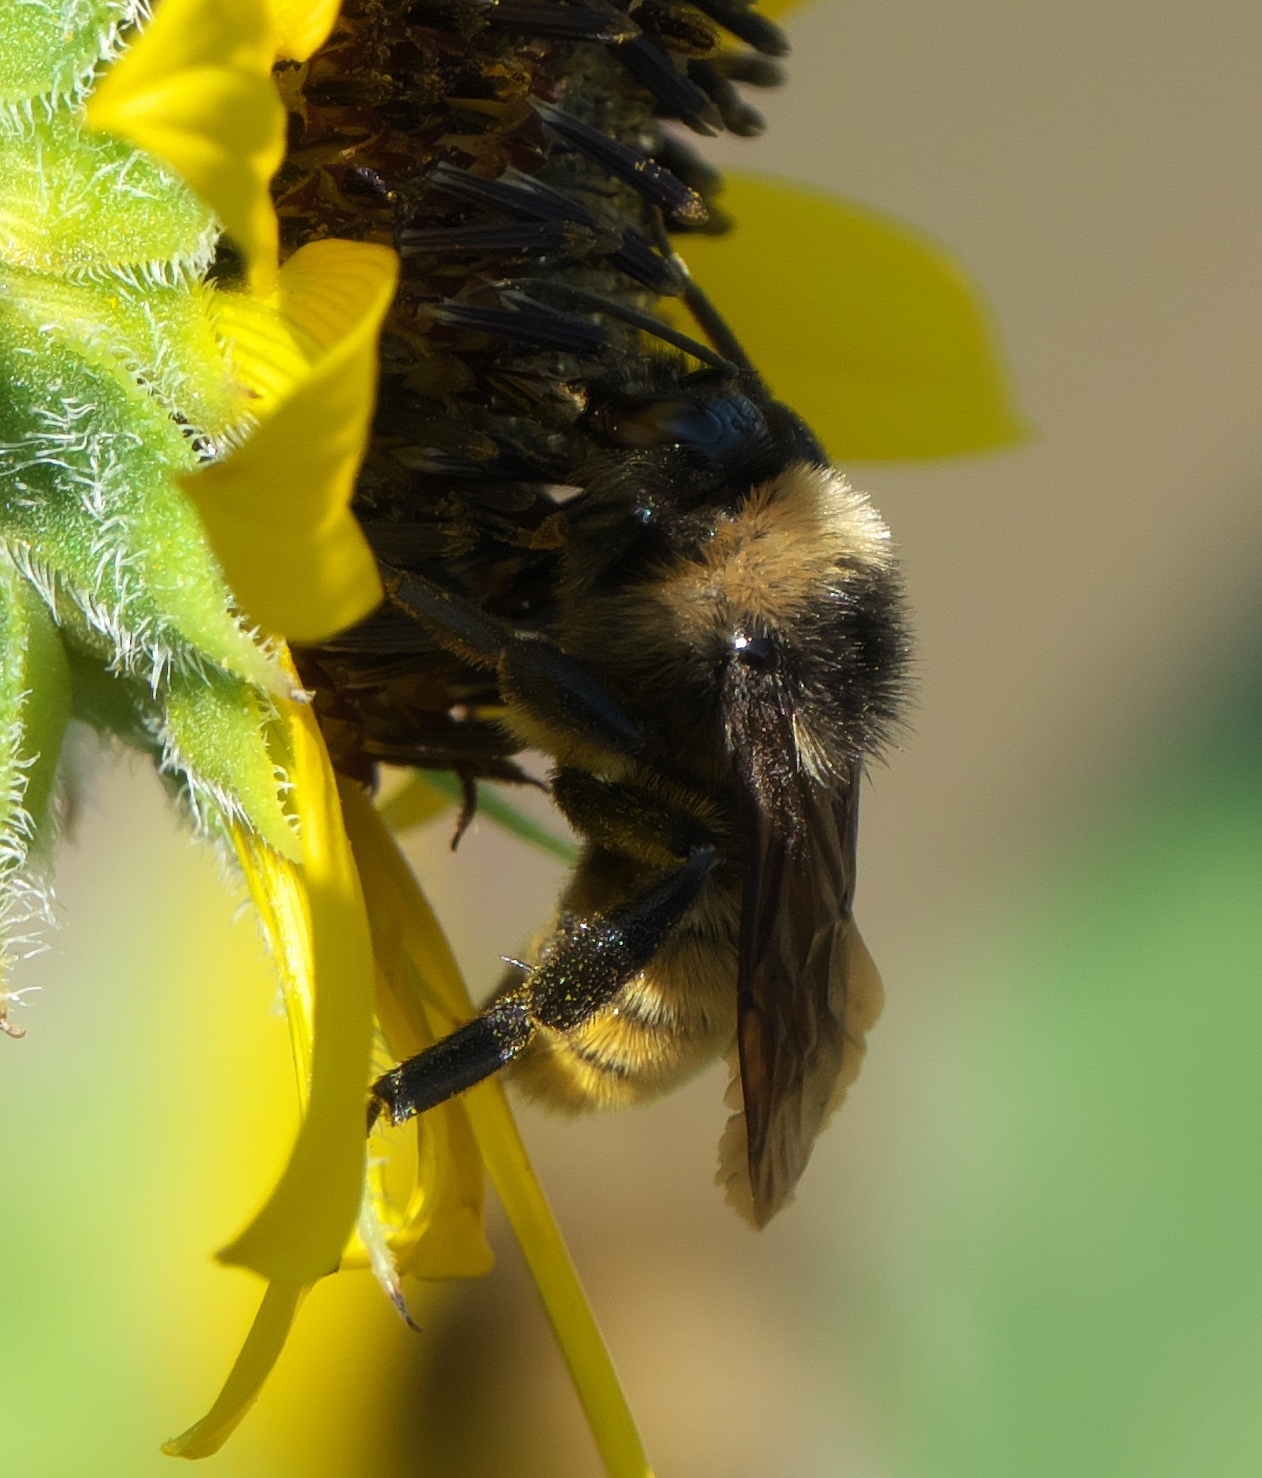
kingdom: Animalia
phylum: Arthropoda
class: Insecta
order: Hymenoptera
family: Apidae
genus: Bombus
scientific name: Bombus pensylvanicus
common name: Bumble bee
